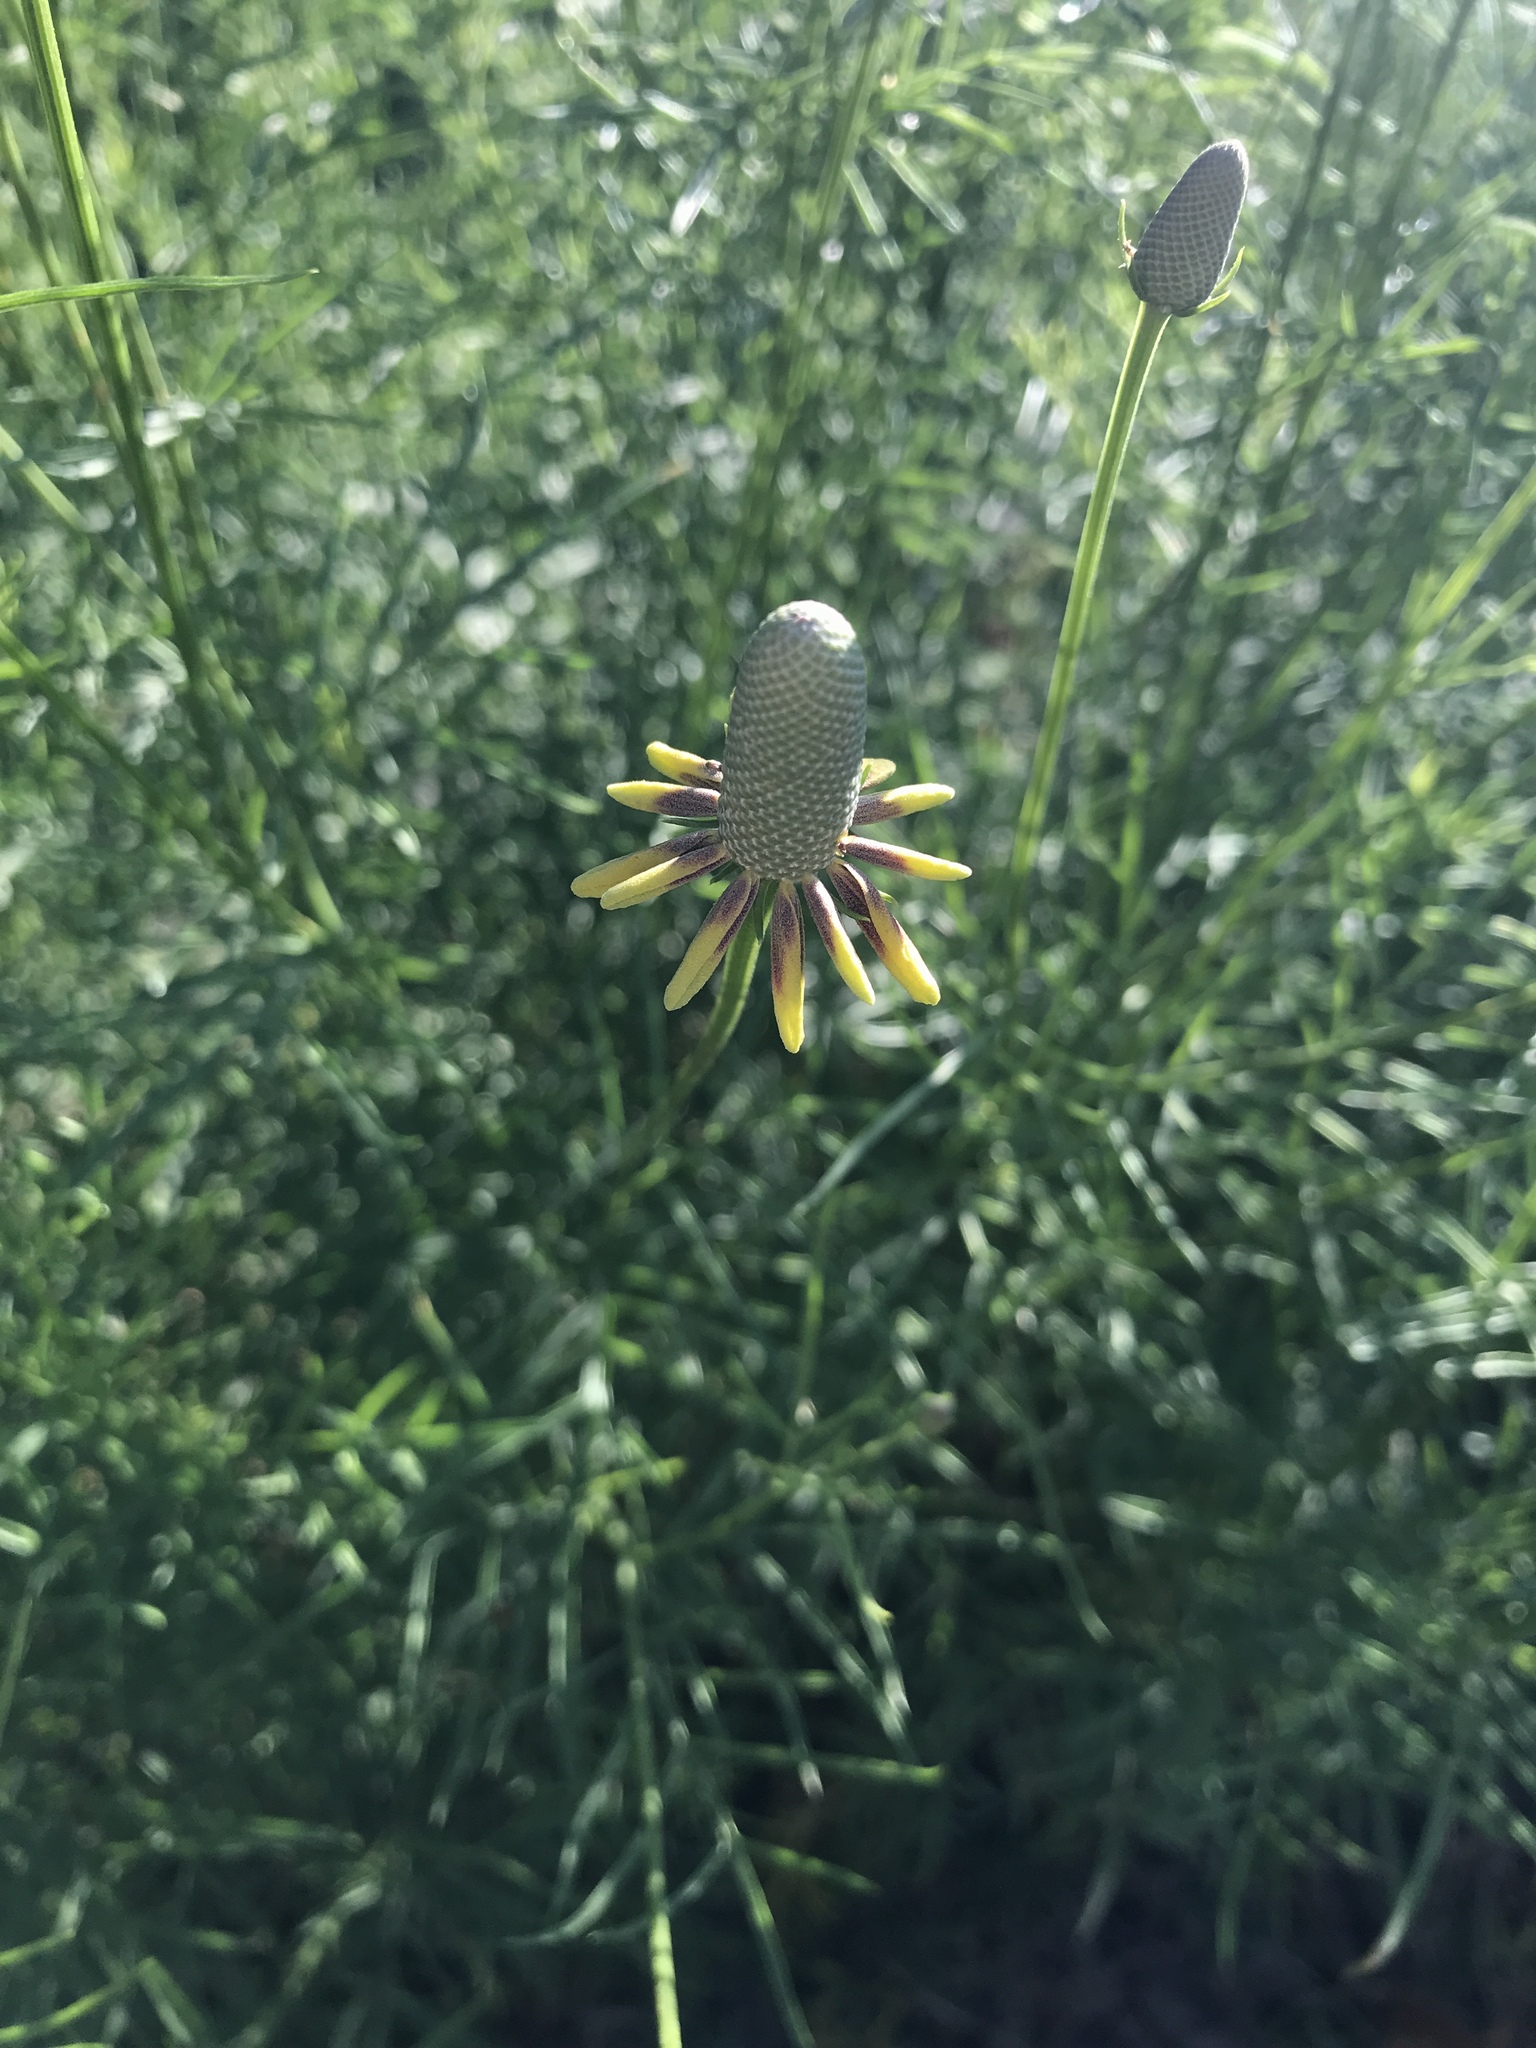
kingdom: Plantae
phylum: Tracheophyta
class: Magnoliopsida
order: Asterales
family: Asteraceae
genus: Ratibida
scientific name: Ratibida columnifera
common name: Prairie coneflower
